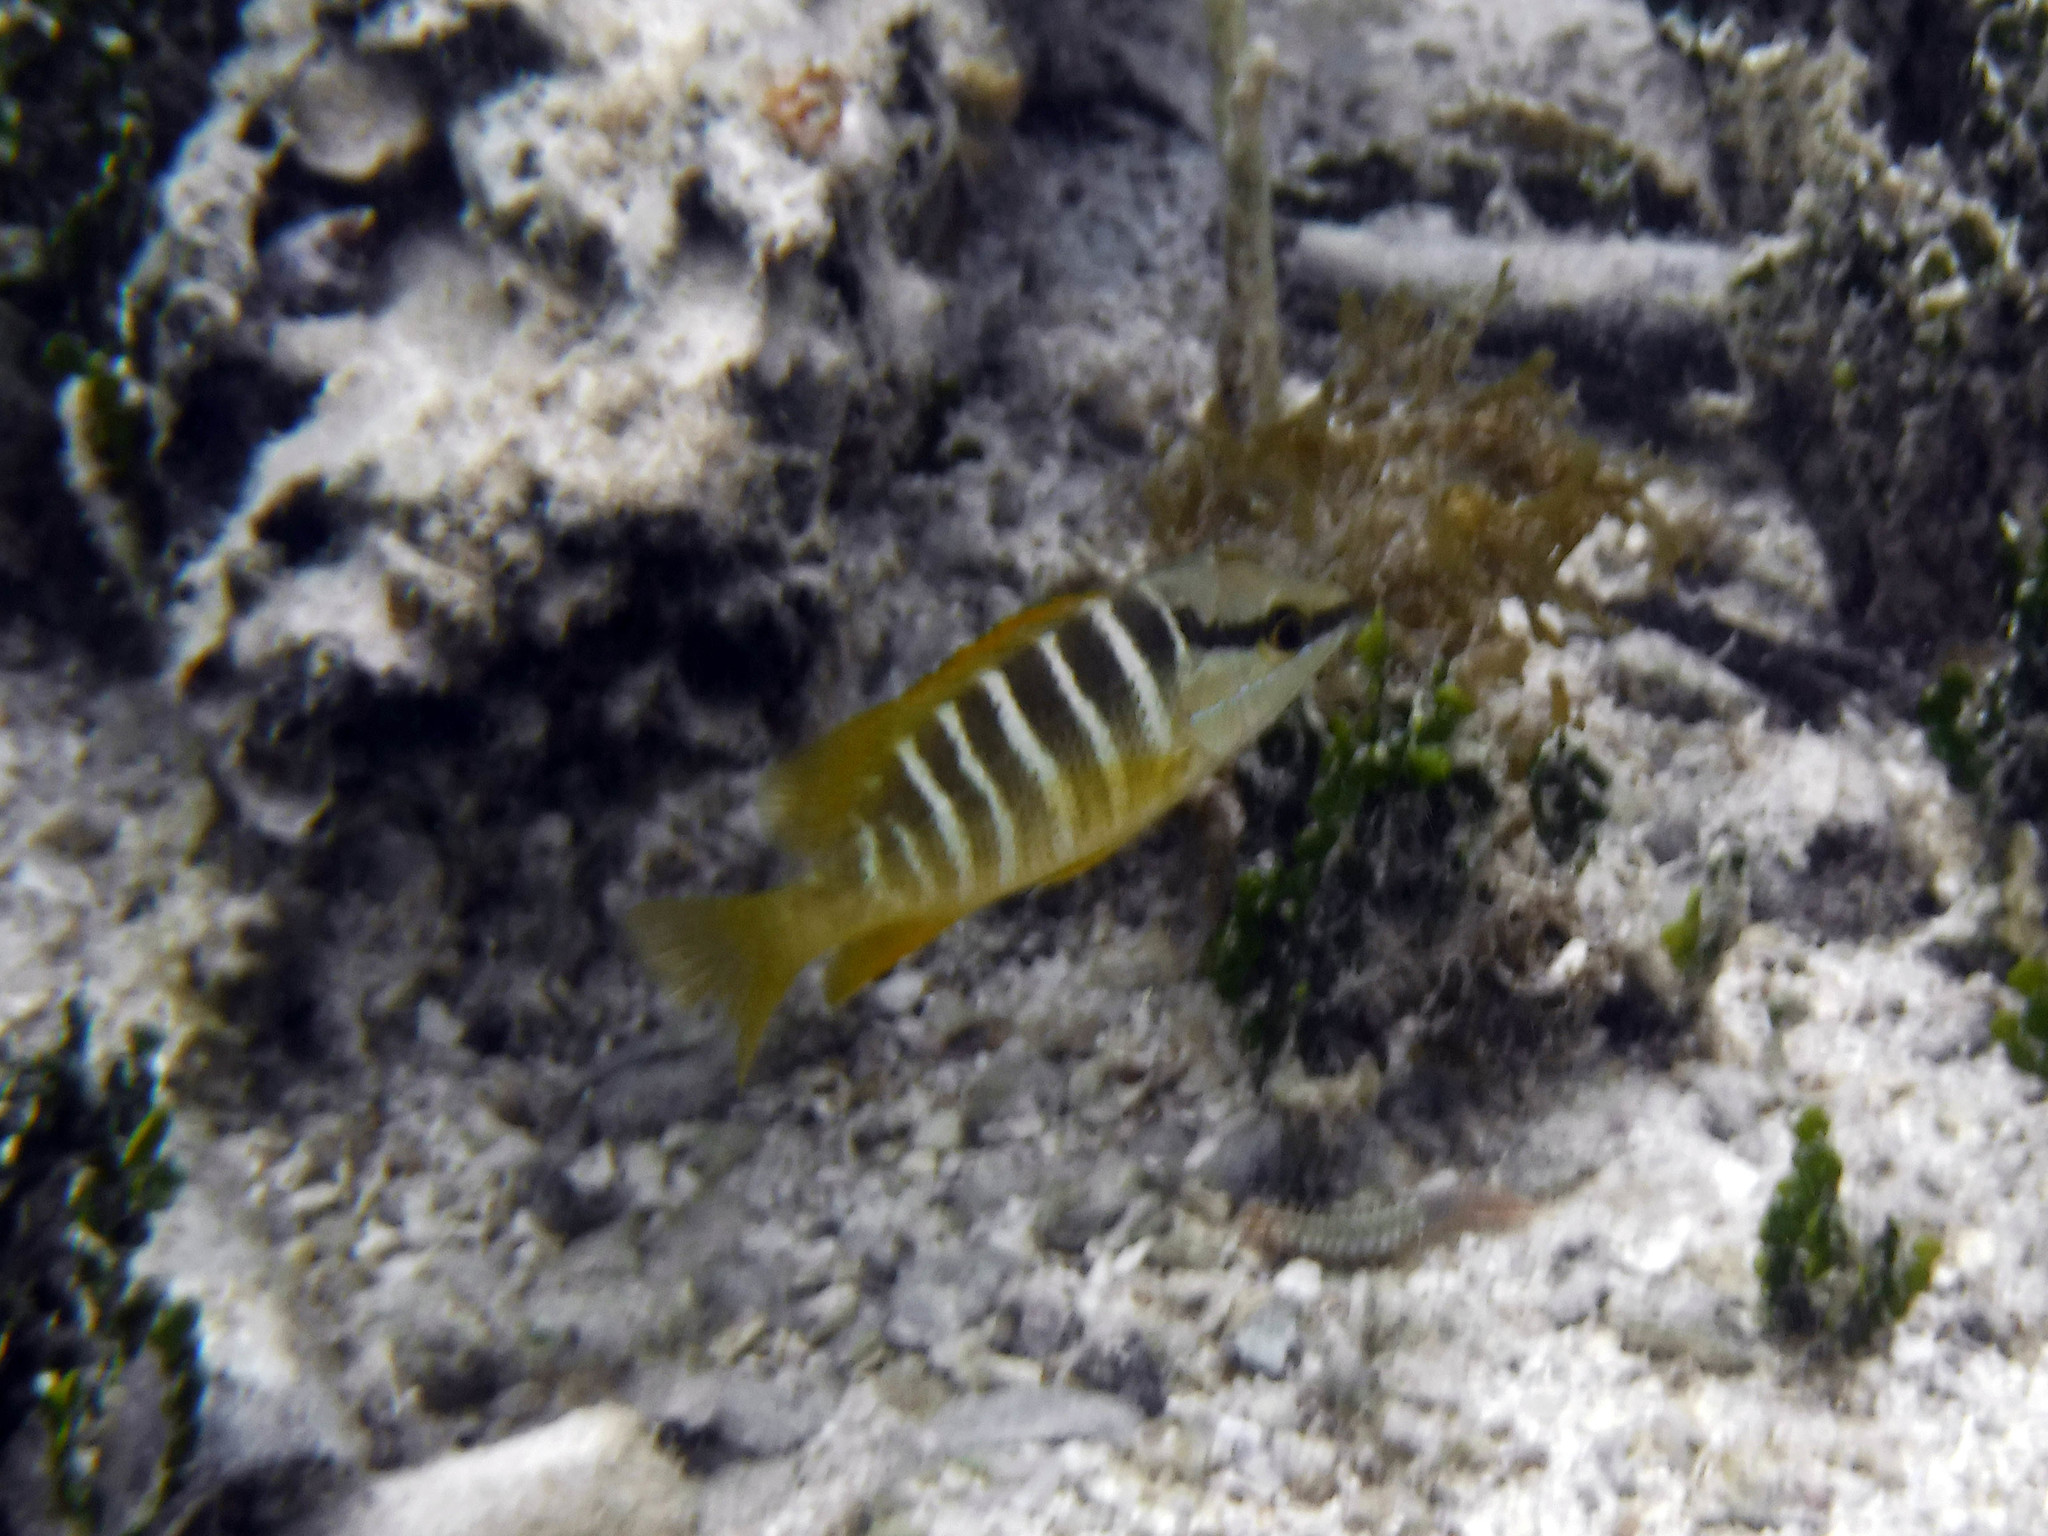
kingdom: Animalia
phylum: Chordata
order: Perciformes
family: Lutjanidae
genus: Lutjanus
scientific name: Lutjanus apodus
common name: Schoolmaster
